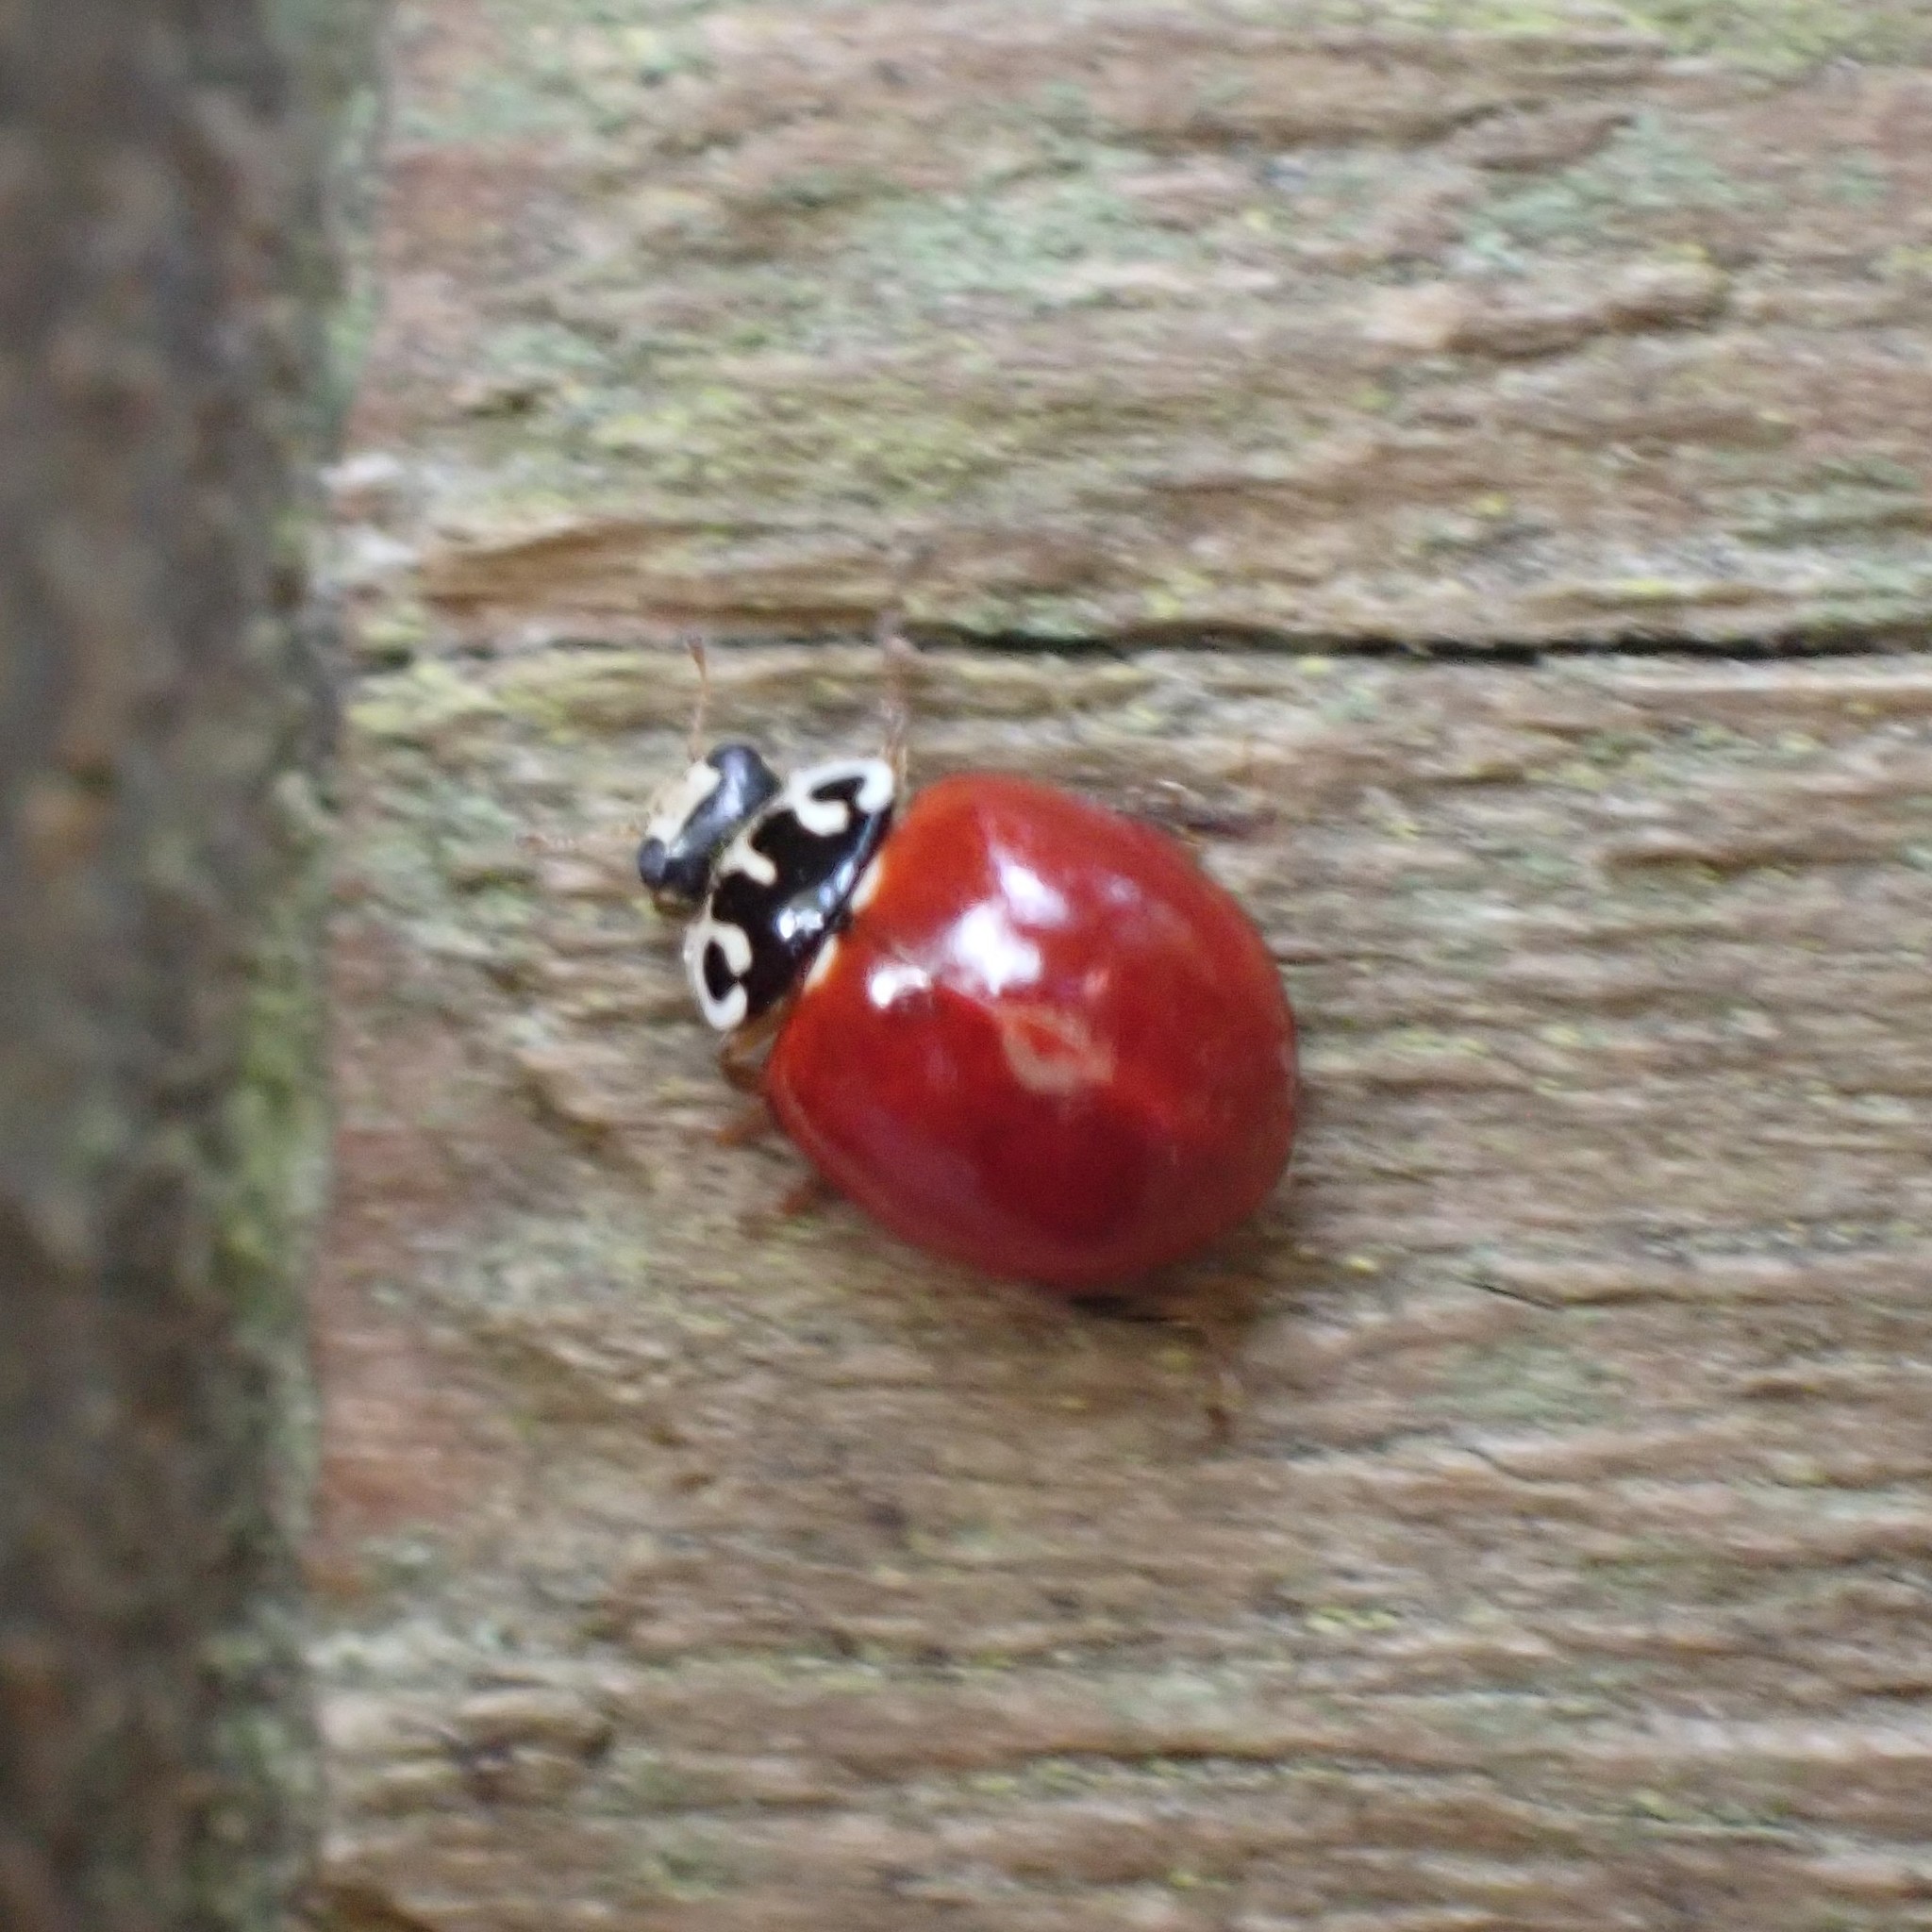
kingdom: Animalia
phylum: Arthropoda
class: Insecta
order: Coleoptera
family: Coccinellidae
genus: Cycloneda
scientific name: Cycloneda polita
